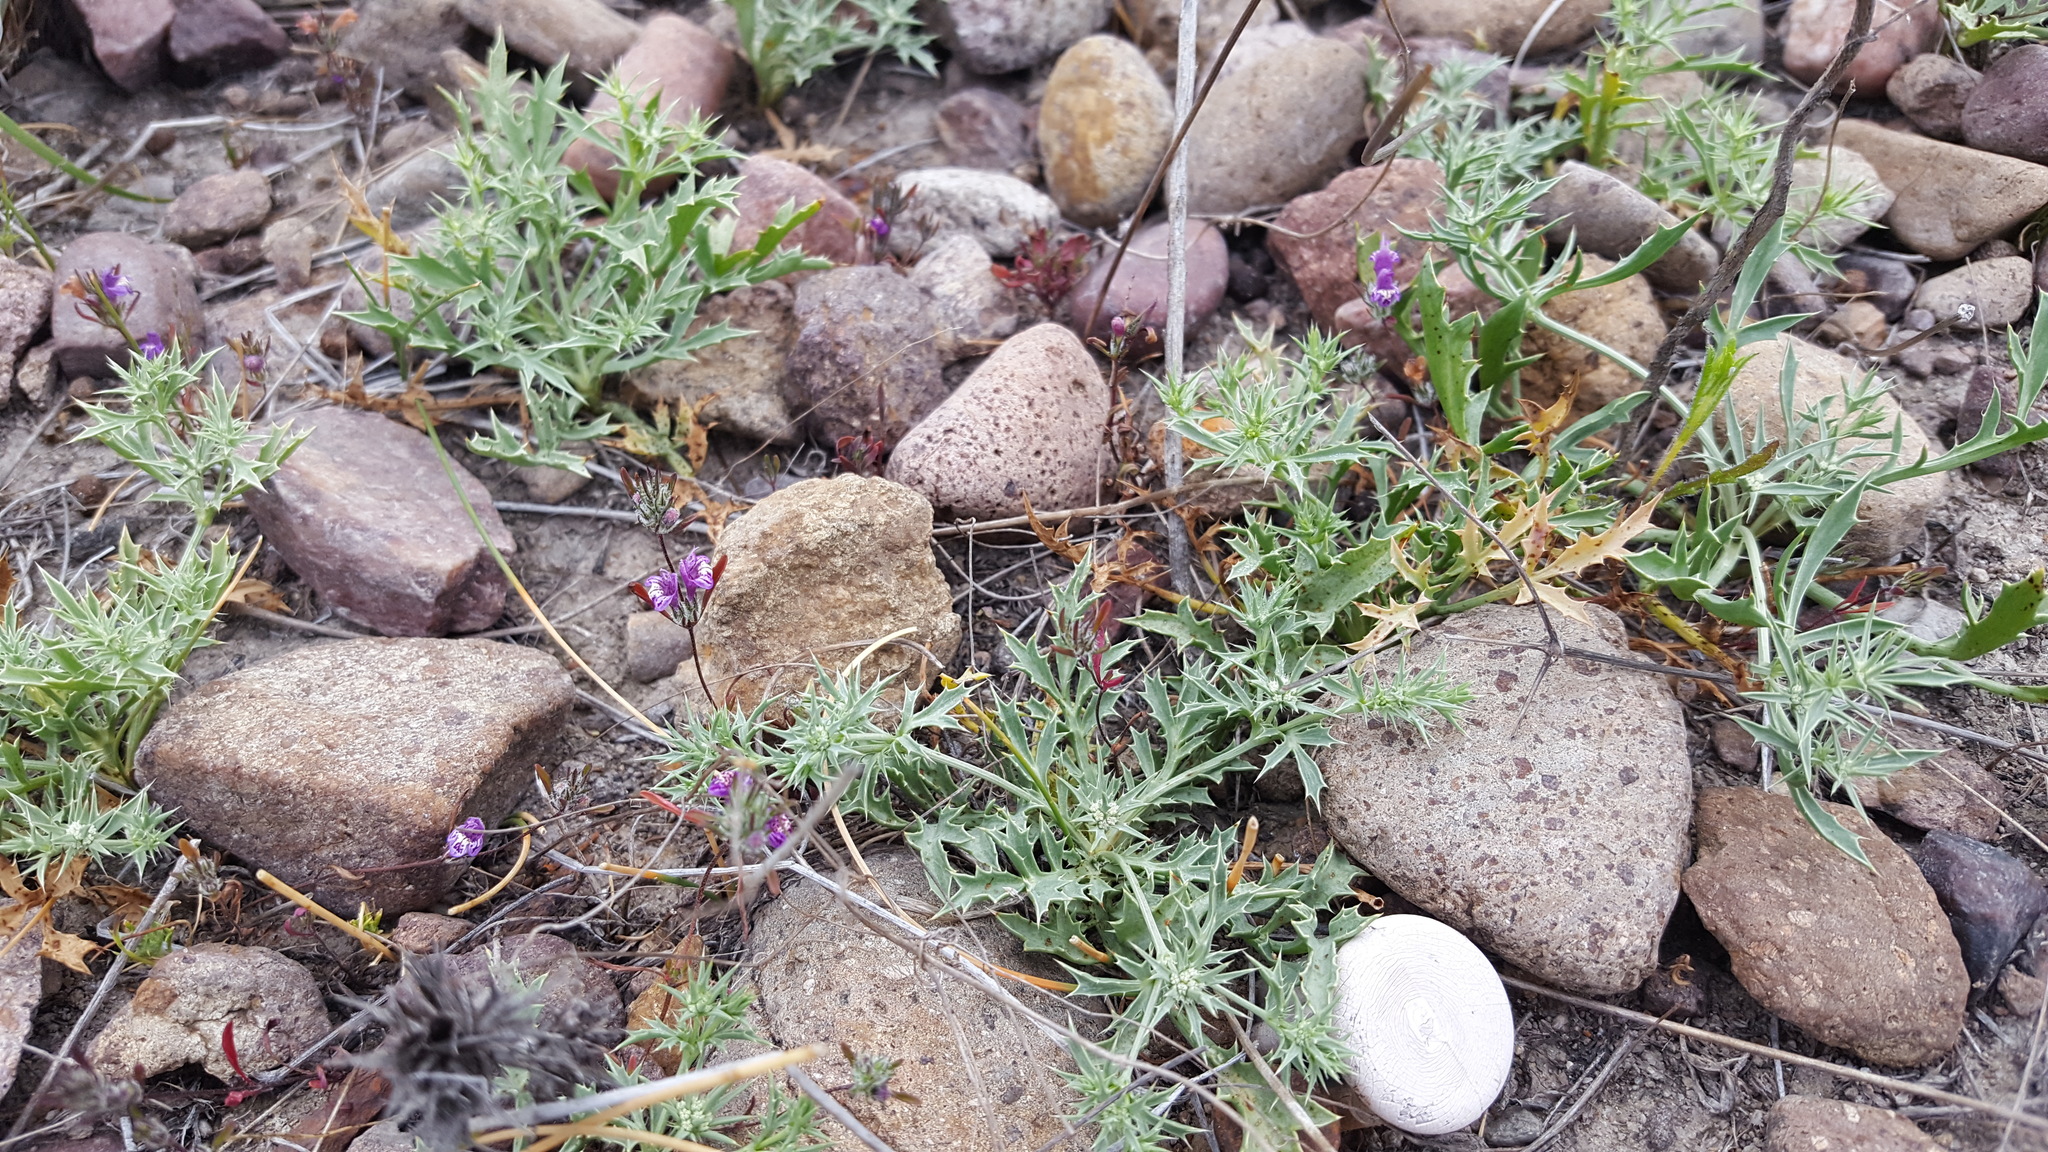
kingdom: Plantae
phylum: Tracheophyta
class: Magnoliopsida
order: Apiales
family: Apiaceae
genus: Eryngium
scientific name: Eryngium aristulatum
